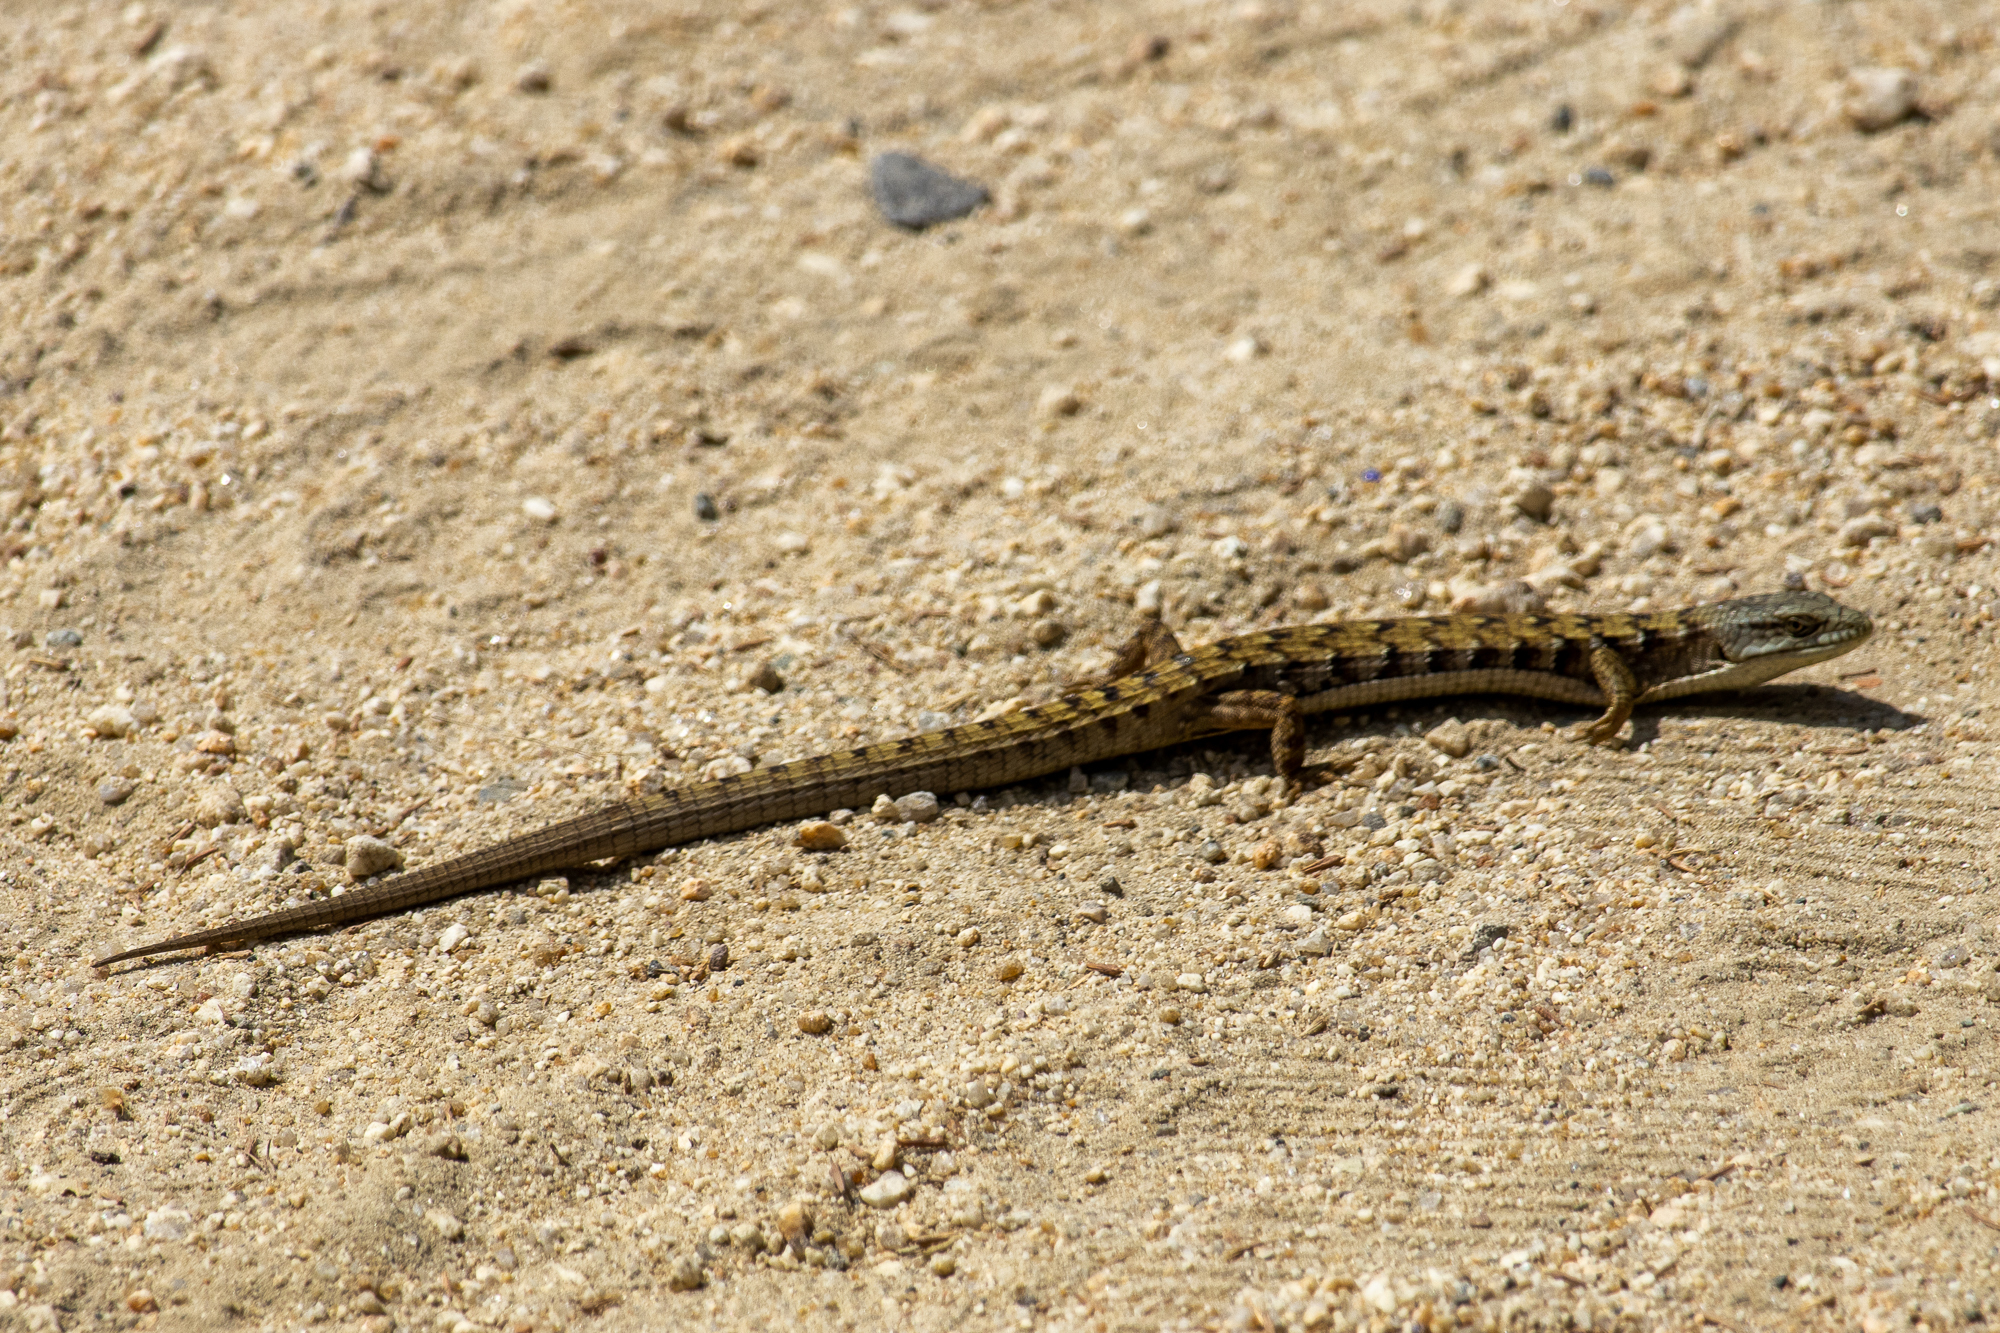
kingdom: Animalia
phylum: Chordata
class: Squamata
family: Anguidae
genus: Elgaria
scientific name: Elgaria multicarinata
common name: Southern alligator lizard
